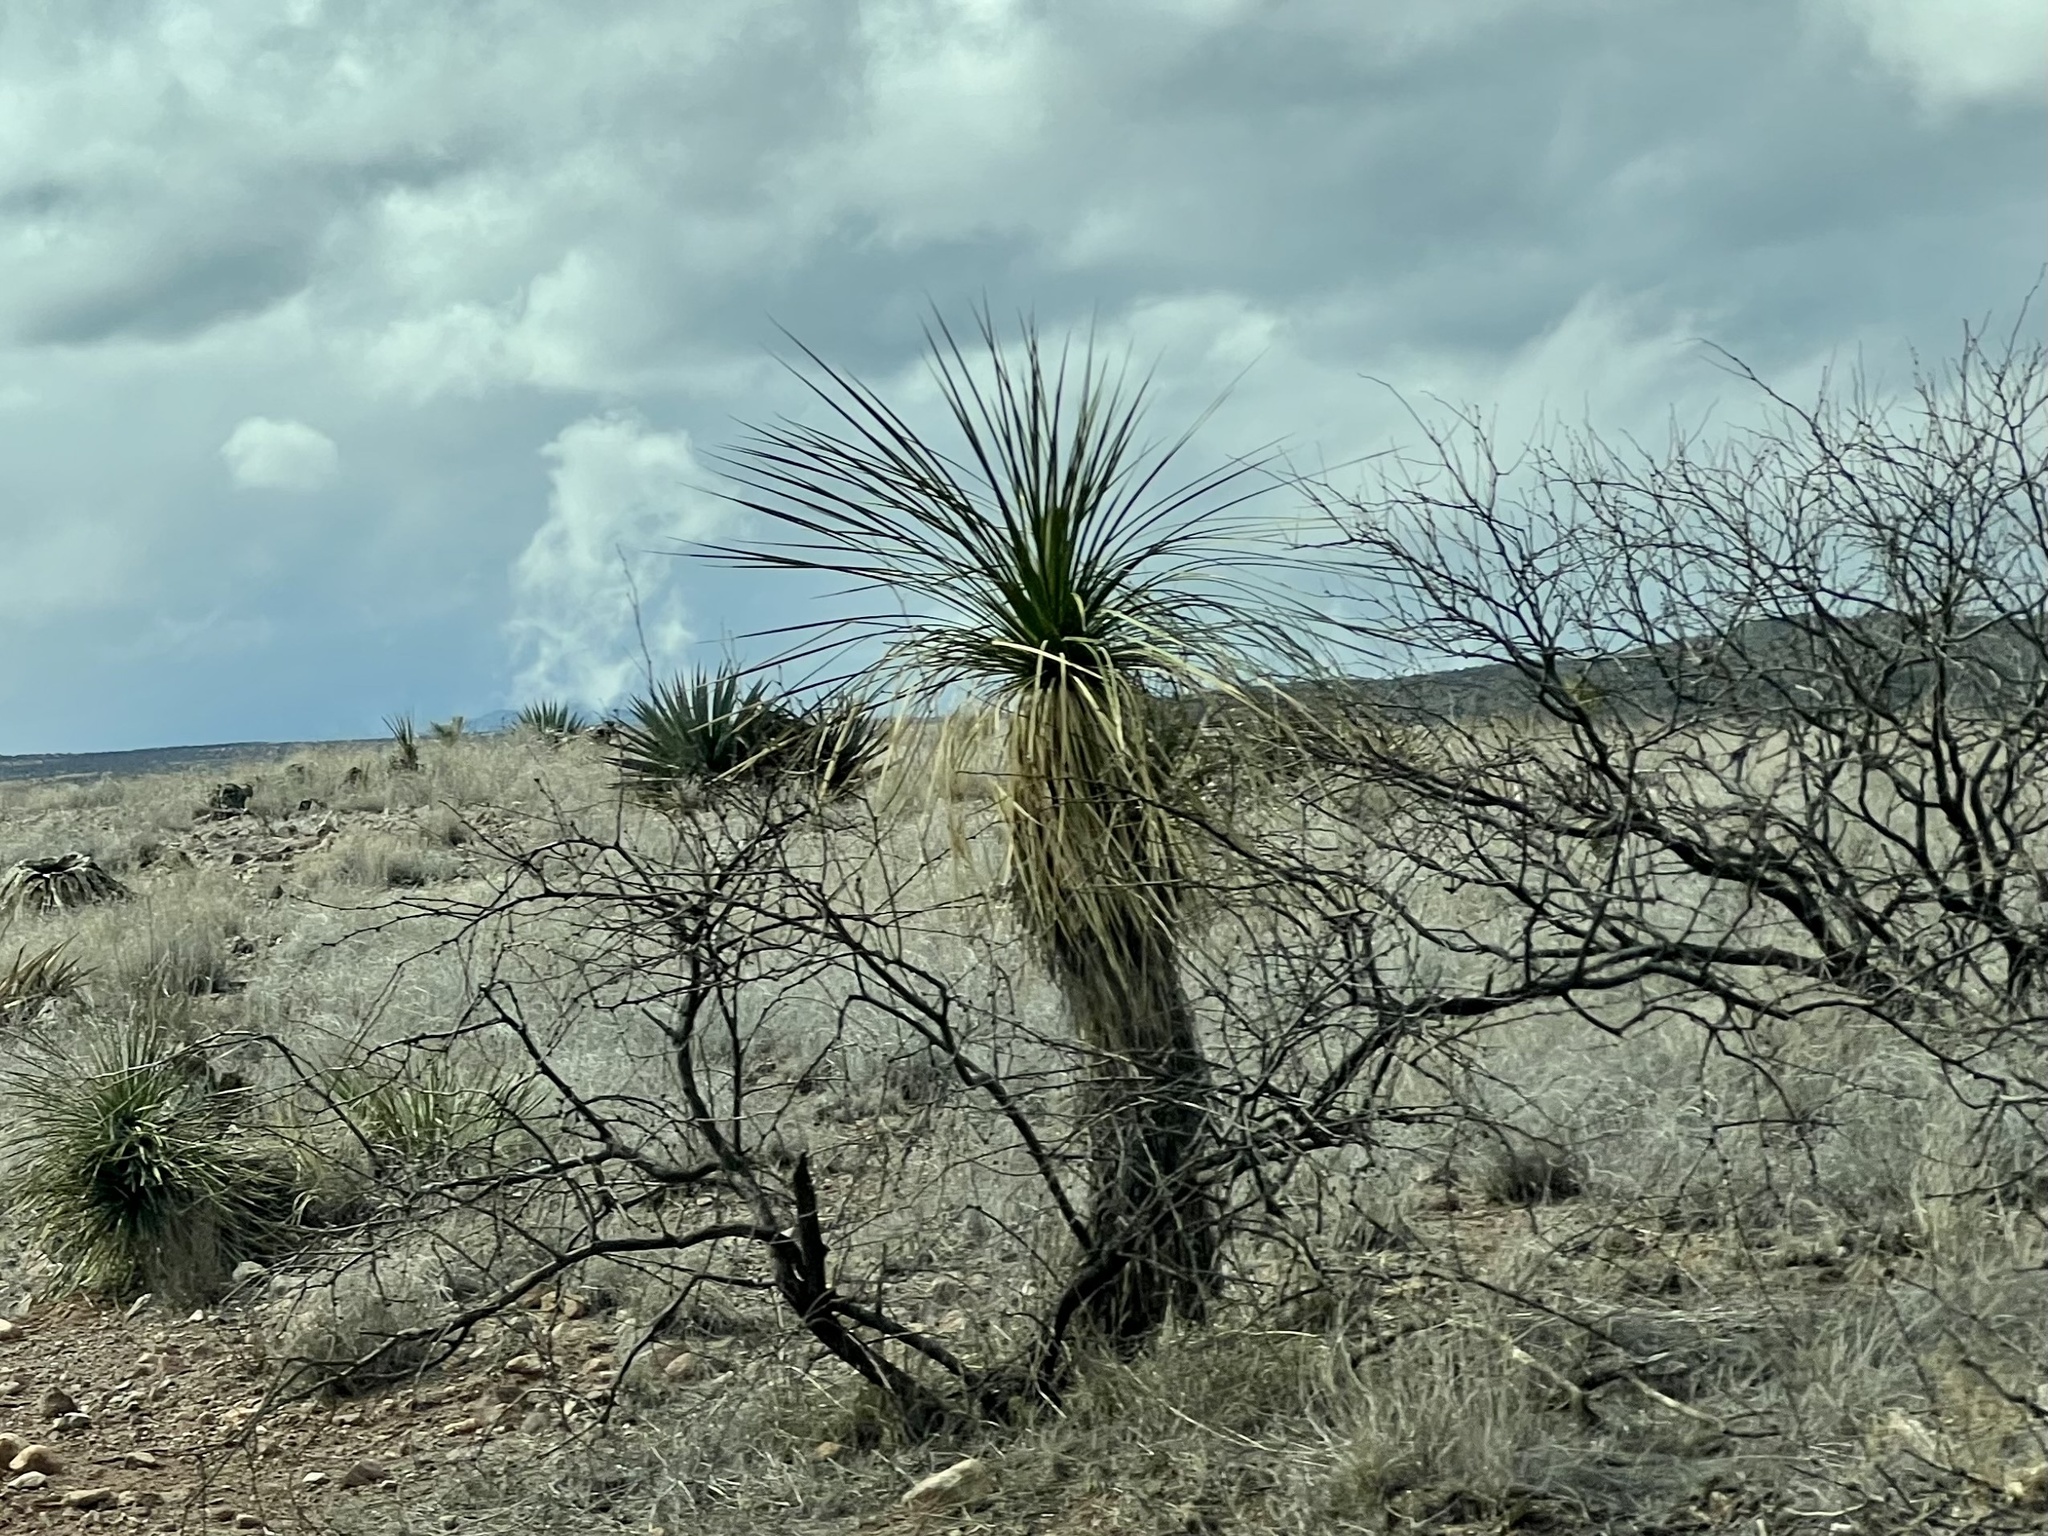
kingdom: Plantae
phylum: Tracheophyta
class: Liliopsida
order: Asparagales
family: Asparagaceae
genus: Yucca
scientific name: Yucca elata
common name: Palmella
